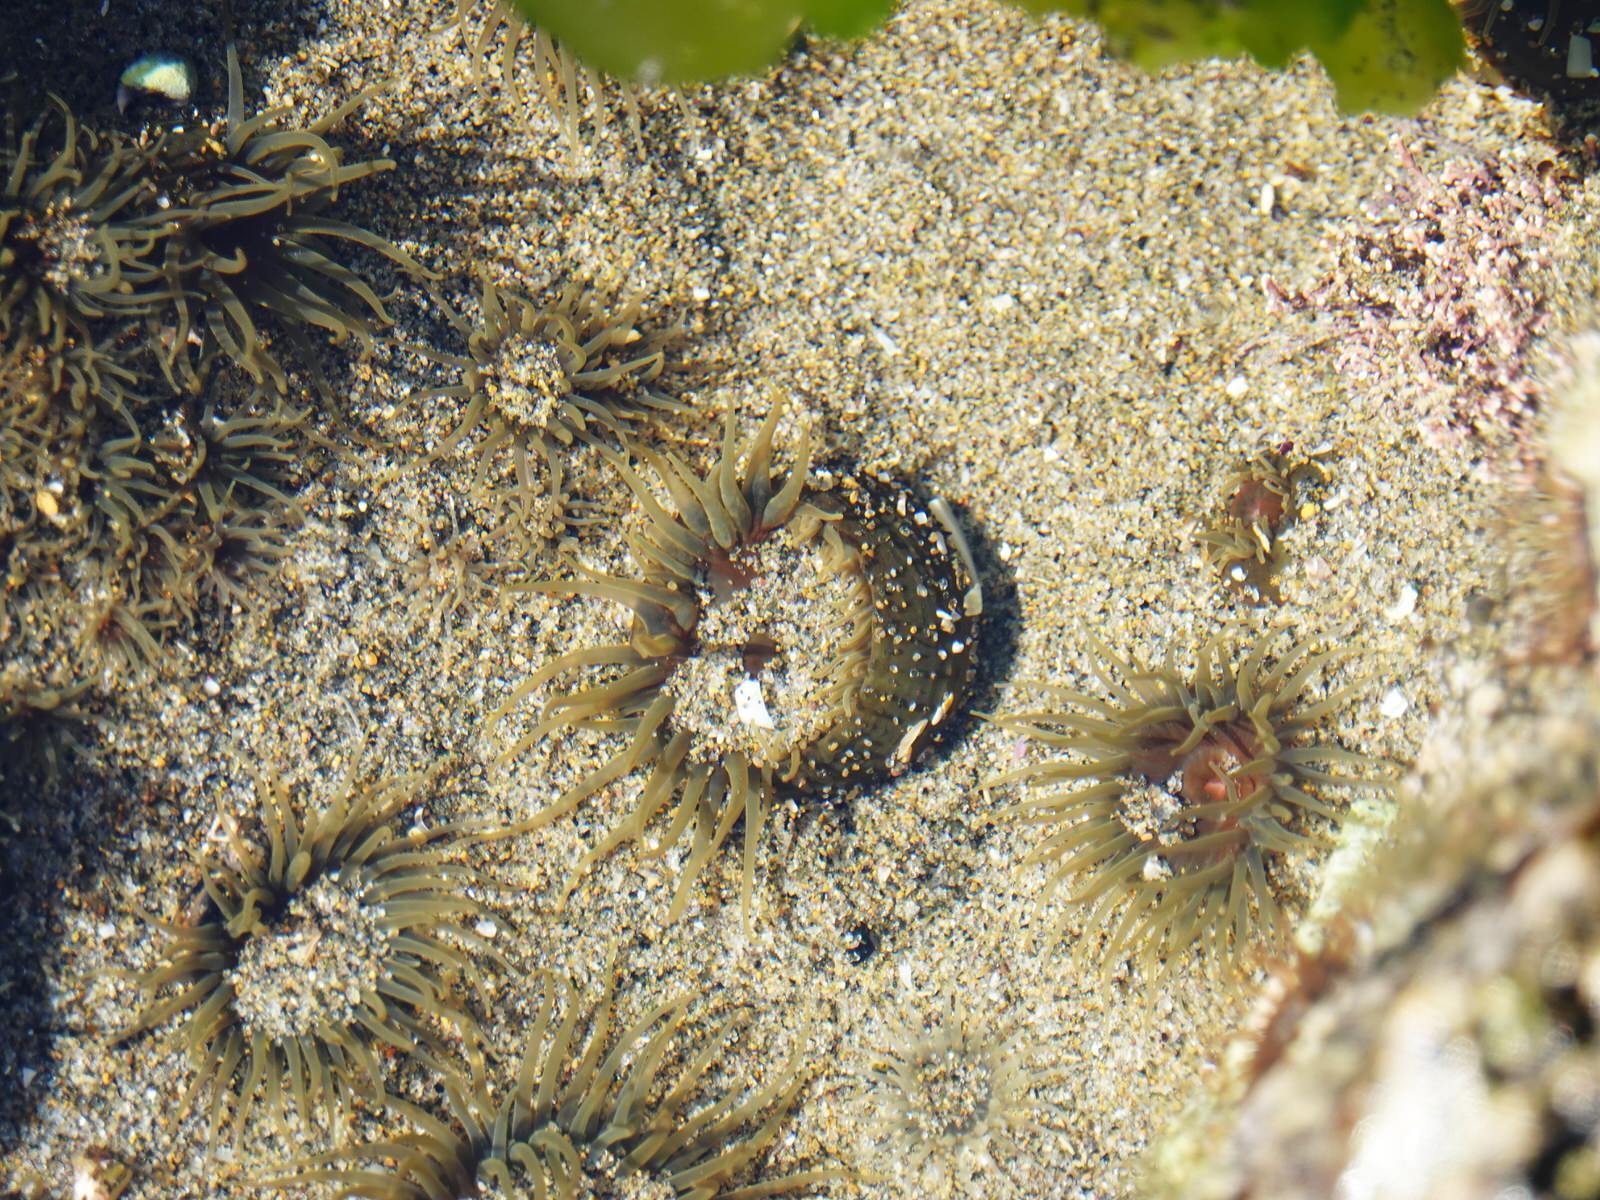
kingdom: Animalia
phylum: Cnidaria
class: Anthozoa
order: Actiniaria
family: Actiniidae
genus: Isactinia
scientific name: Isactinia olivacea
